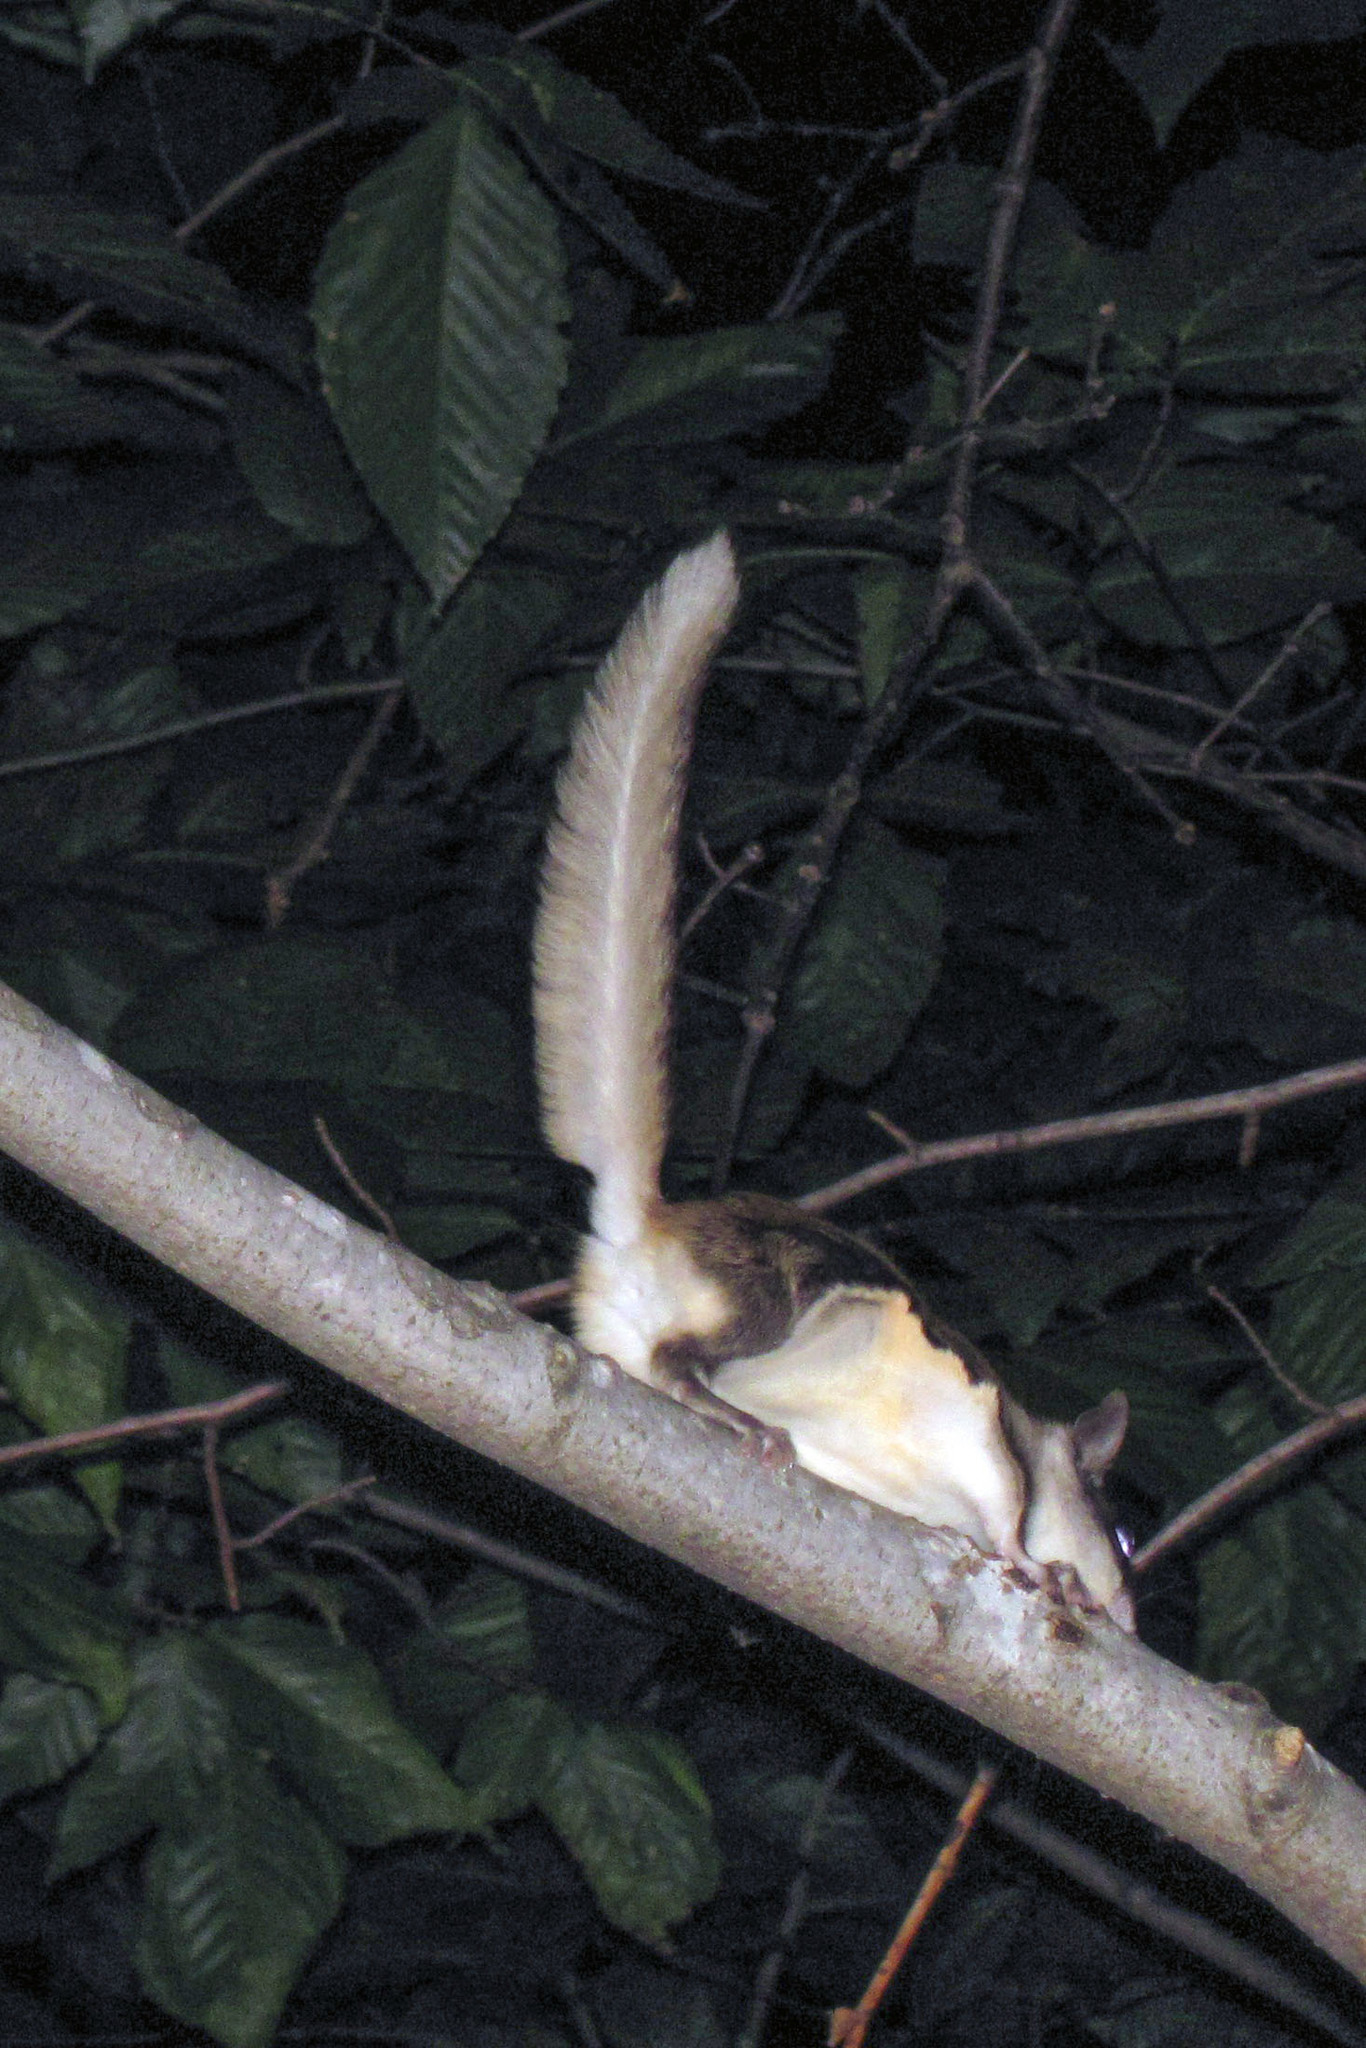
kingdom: Animalia
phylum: Chordata
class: Mammalia
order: Rodentia
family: Sciuridae
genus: Glaucomys
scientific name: Glaucomys volans
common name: Southern flying squirrel
